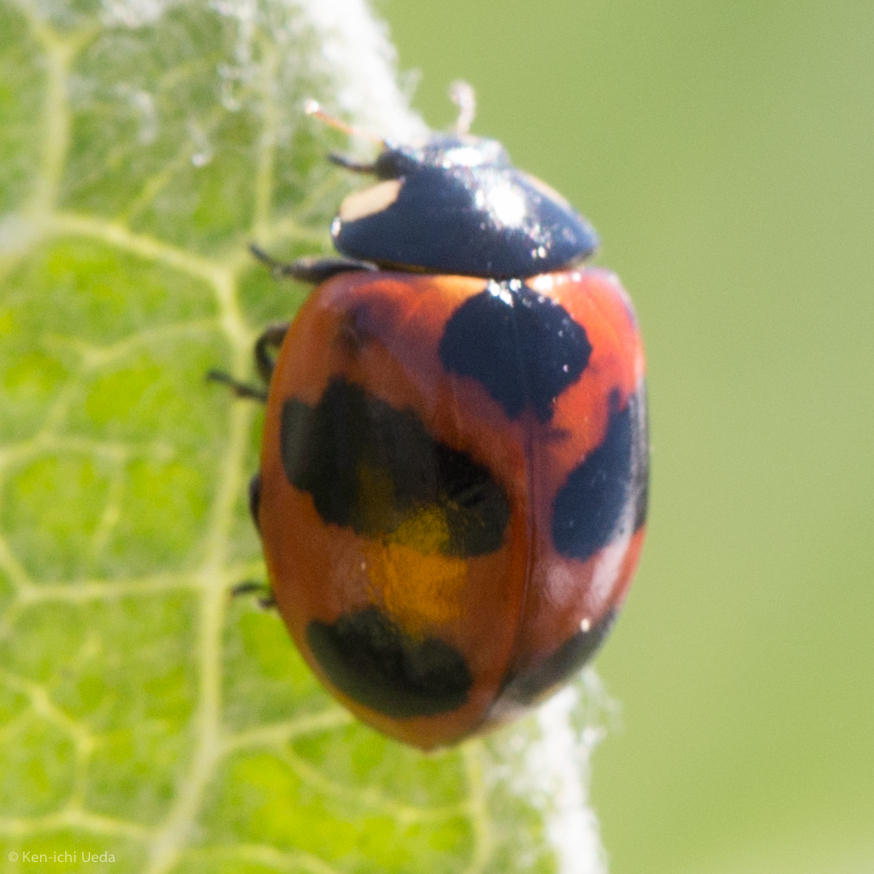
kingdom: Animalia
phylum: Arthropoda
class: Insecta
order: Coleoptera
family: Coccinellidae
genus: Coccinella
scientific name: Coccinella monticola
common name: Mountain lady beetle
